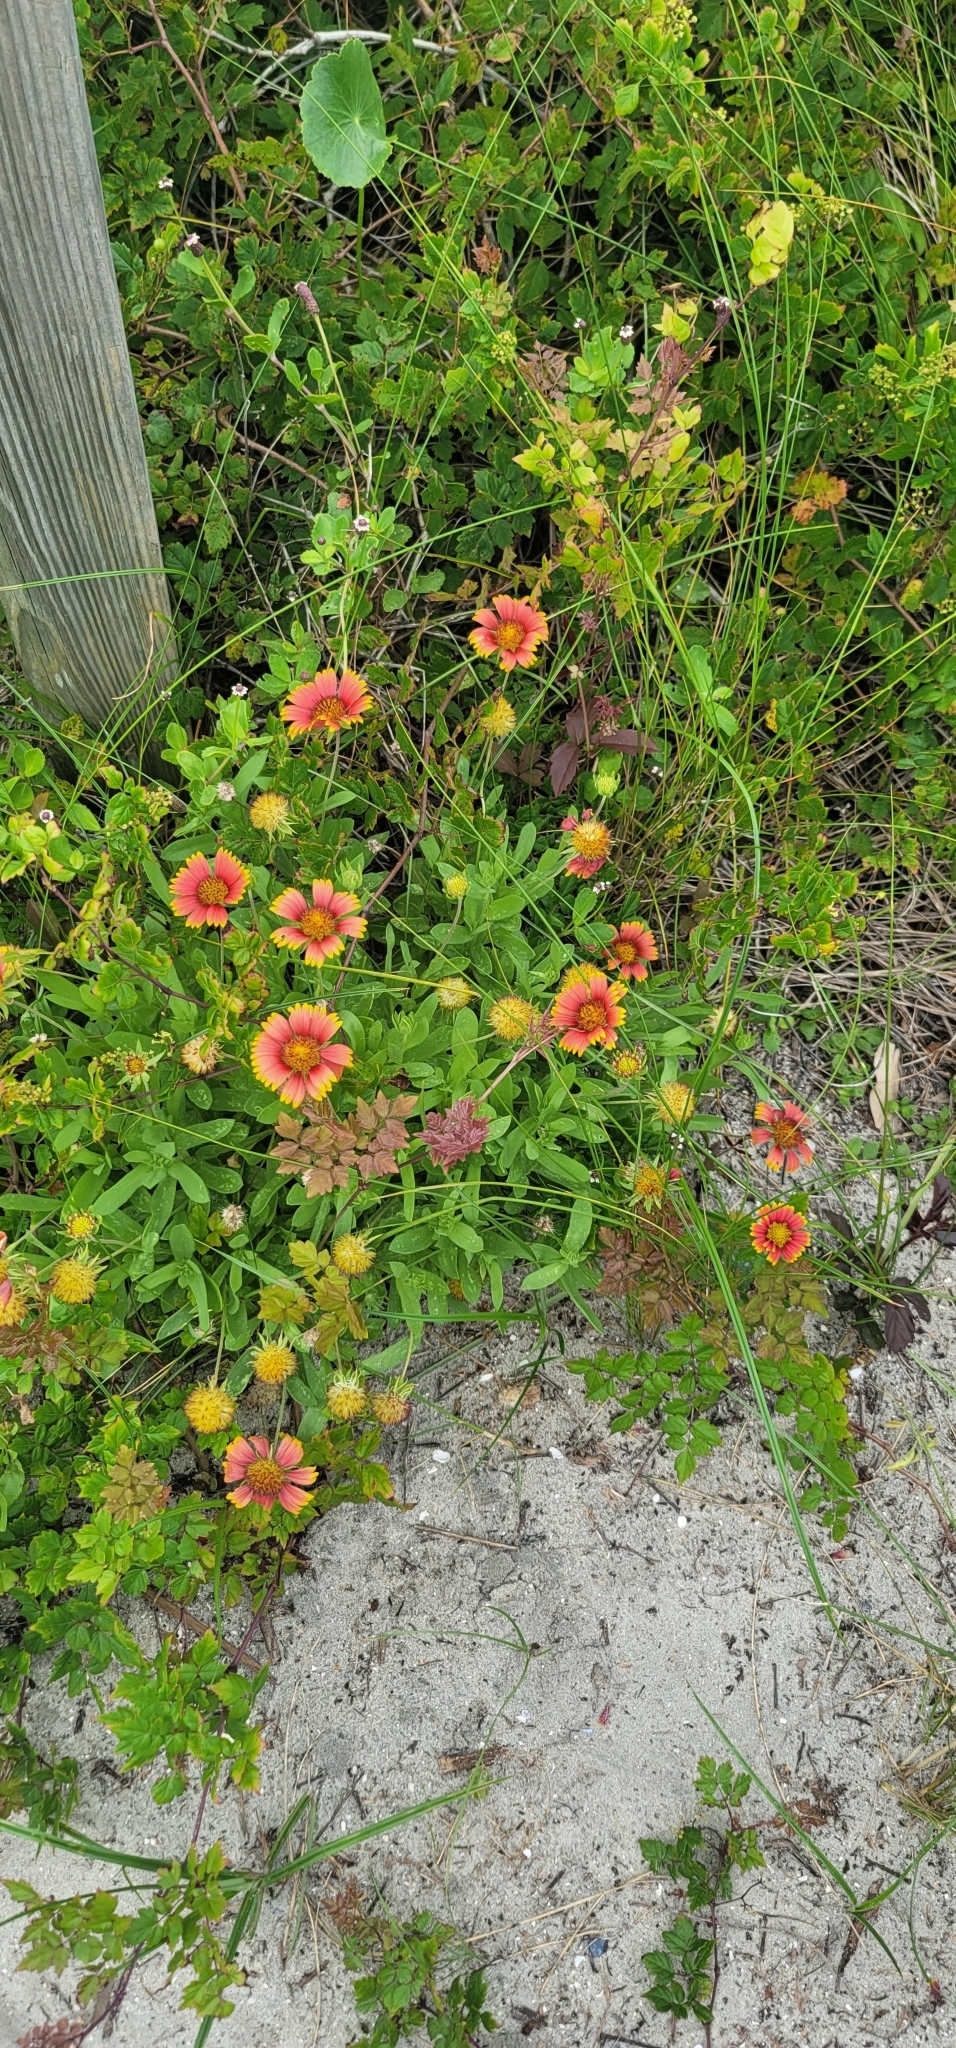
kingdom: Plantae
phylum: Tracheophyta
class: Magnoliopsida
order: Asterales
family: Asteraceae
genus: Gaillardia
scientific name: Gaillardia pulchella
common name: Firewheel
